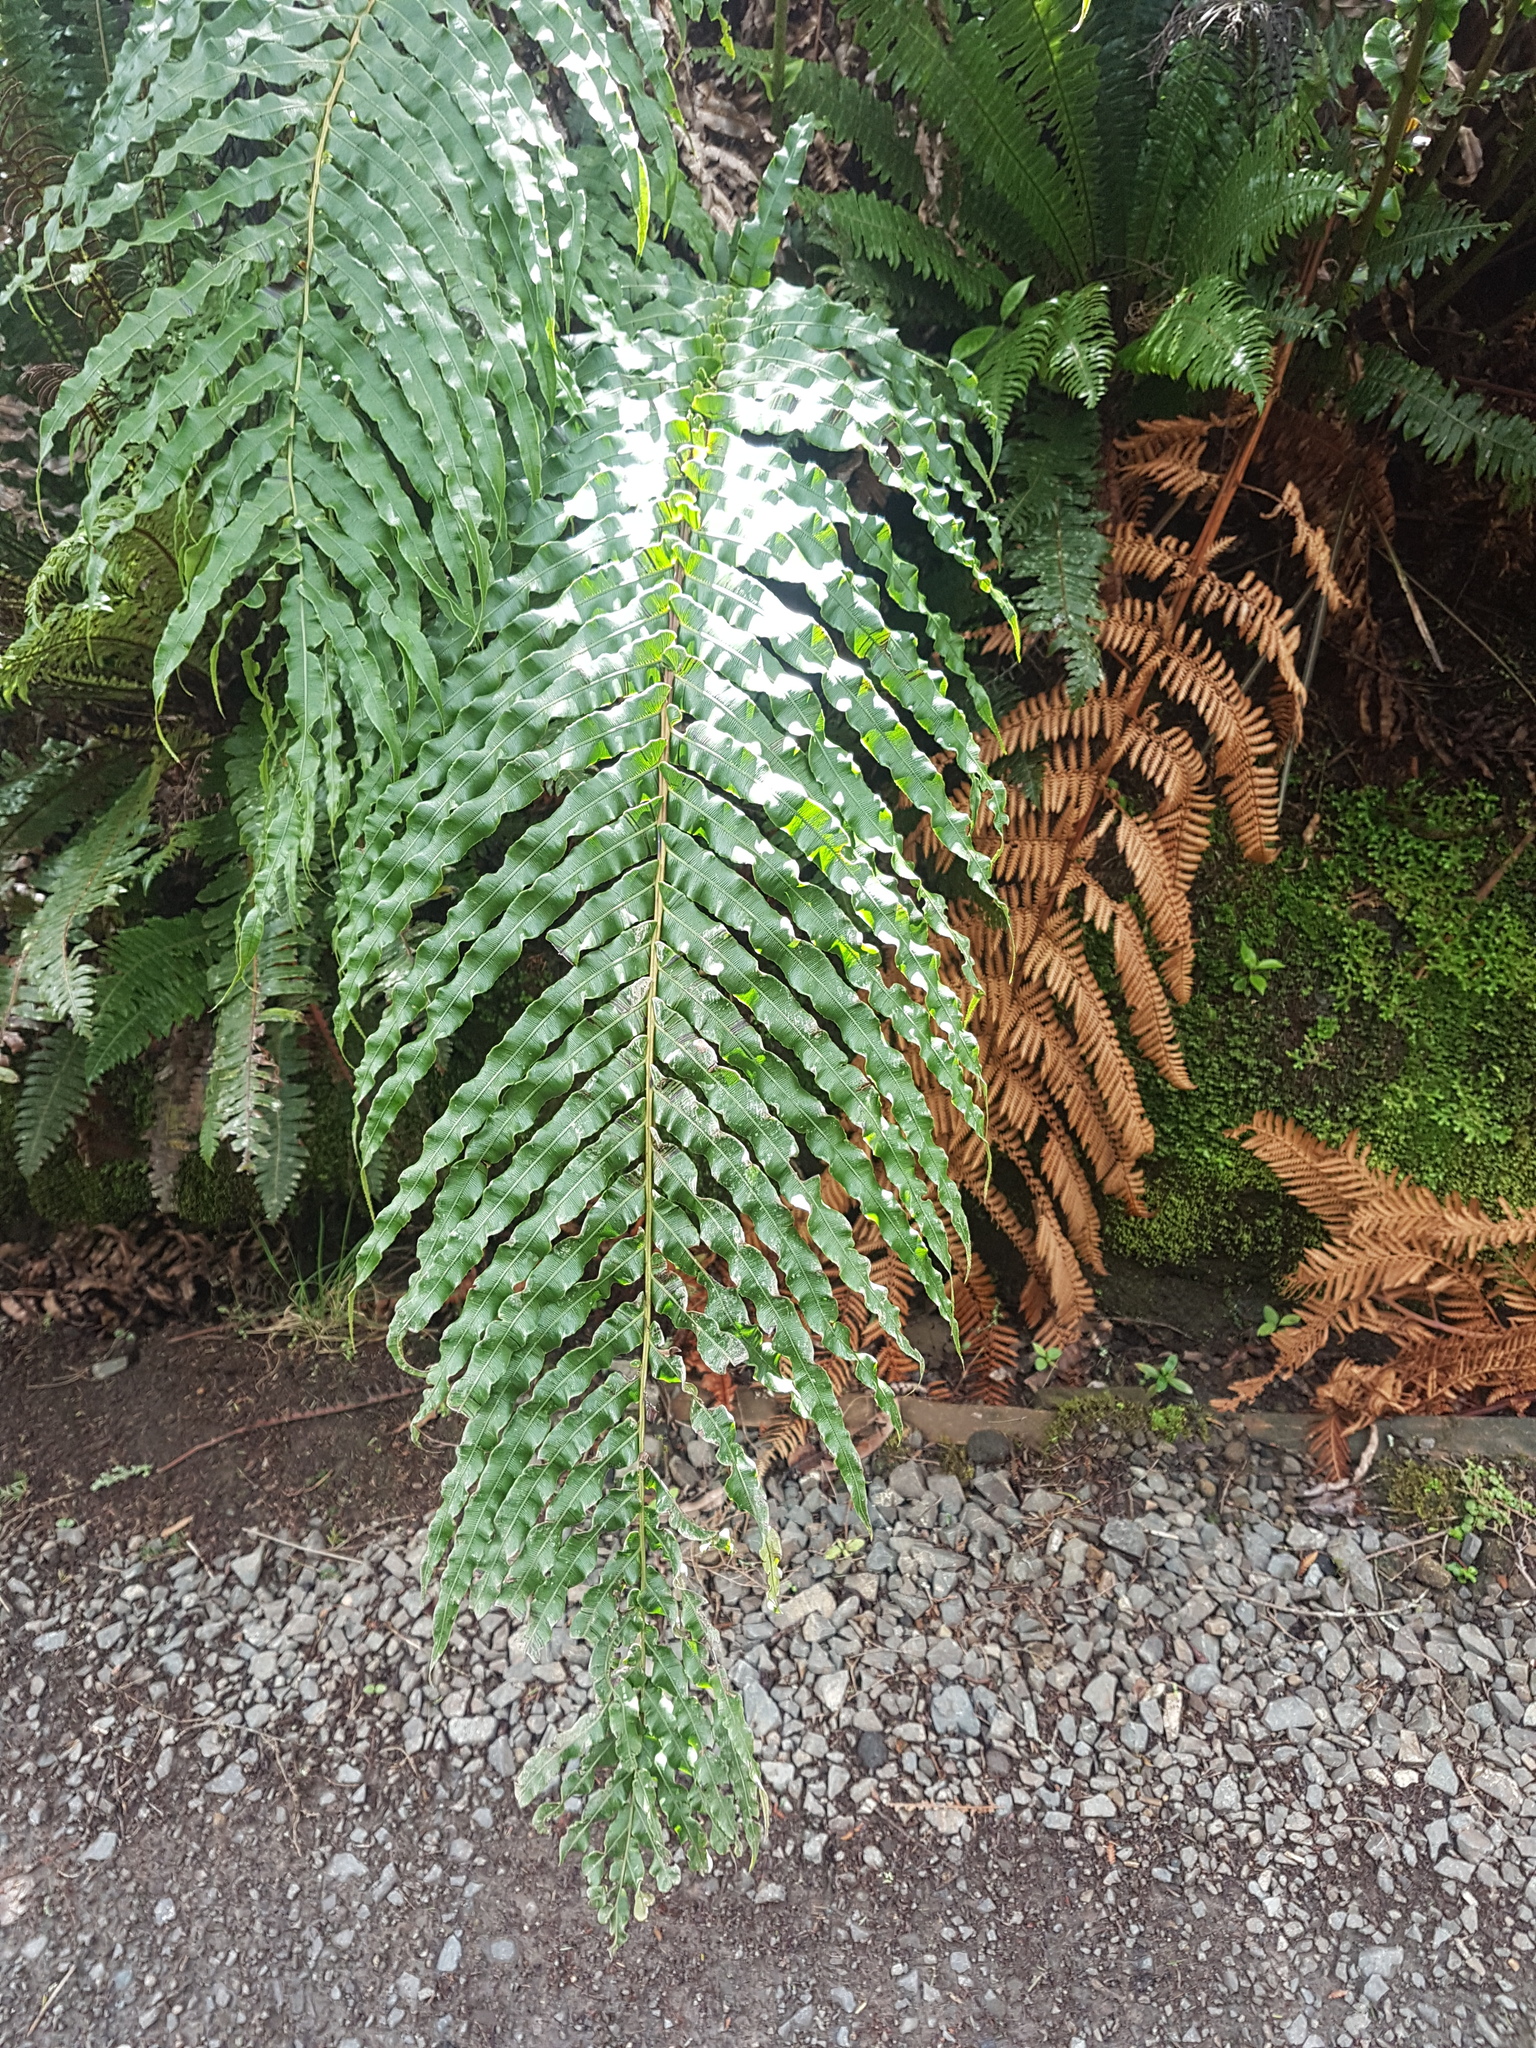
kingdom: Plantae
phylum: Tracheophyta
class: Polypodiopsida
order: Polypodiales
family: Blechnaceae
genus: Parablechnum
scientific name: Parablechnum novae-zelandiae
